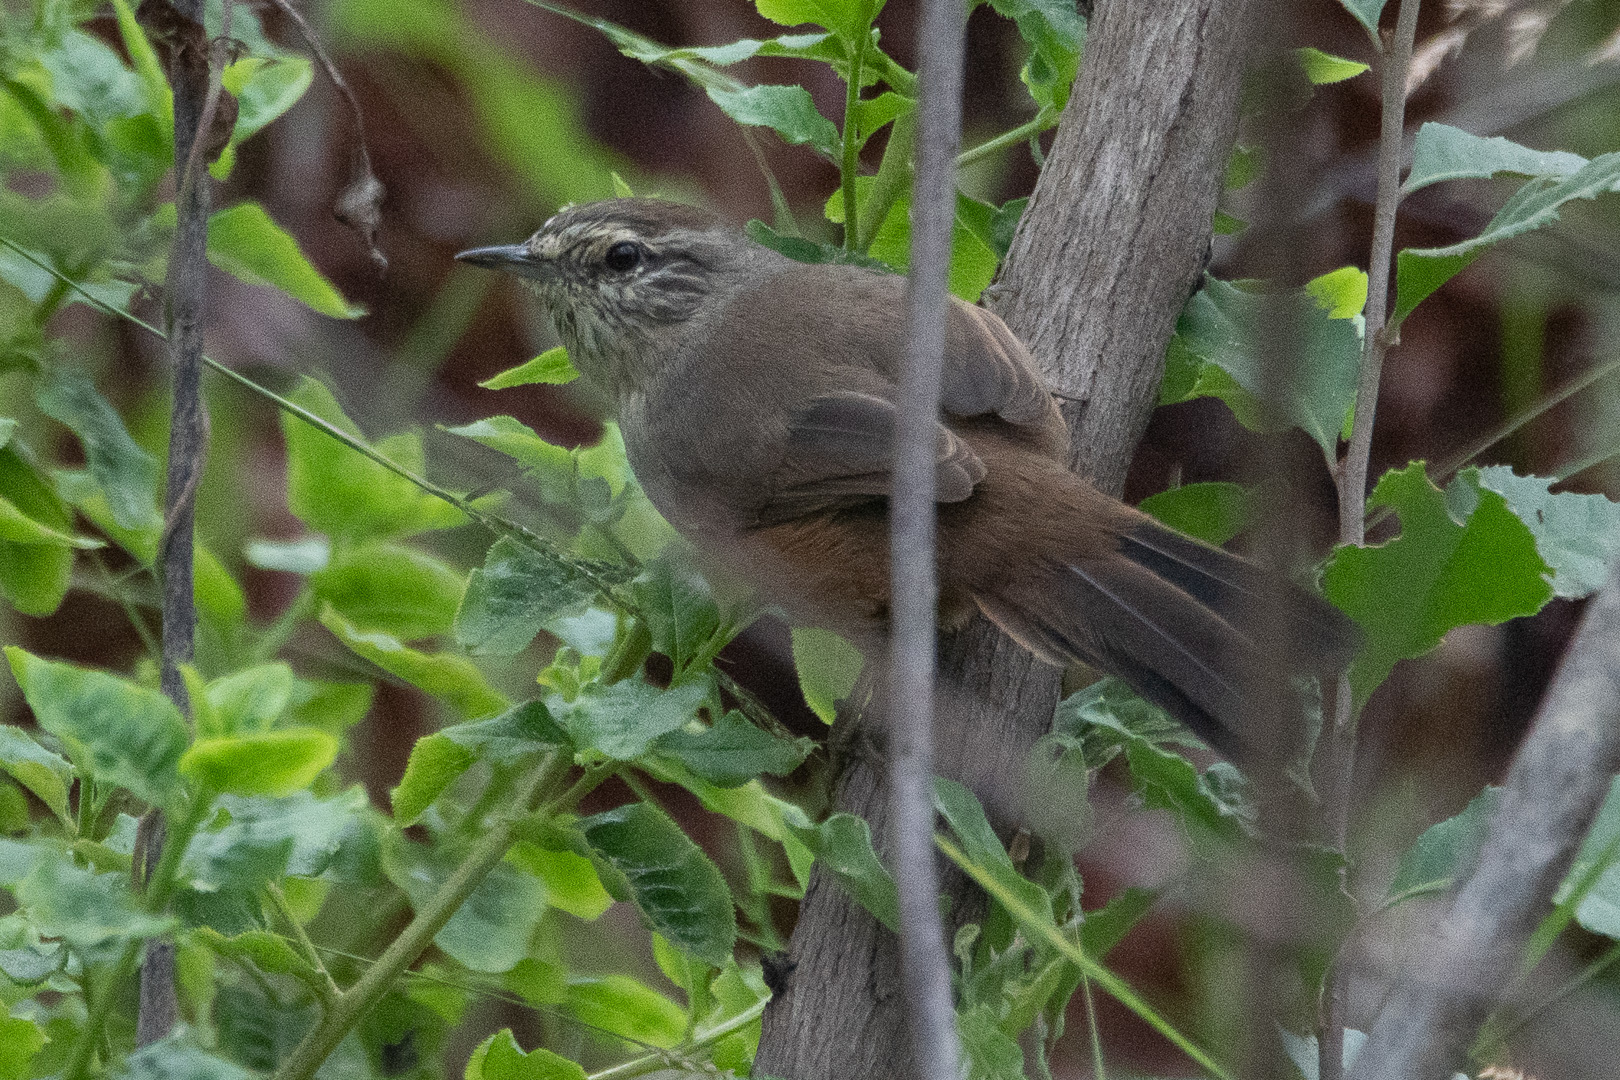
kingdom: Animalia
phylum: Chordata
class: Aves
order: Passeriformes
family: Furnariidae
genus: Asthenes
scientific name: Asthenes humicola
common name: Dusky-tailed canastero
